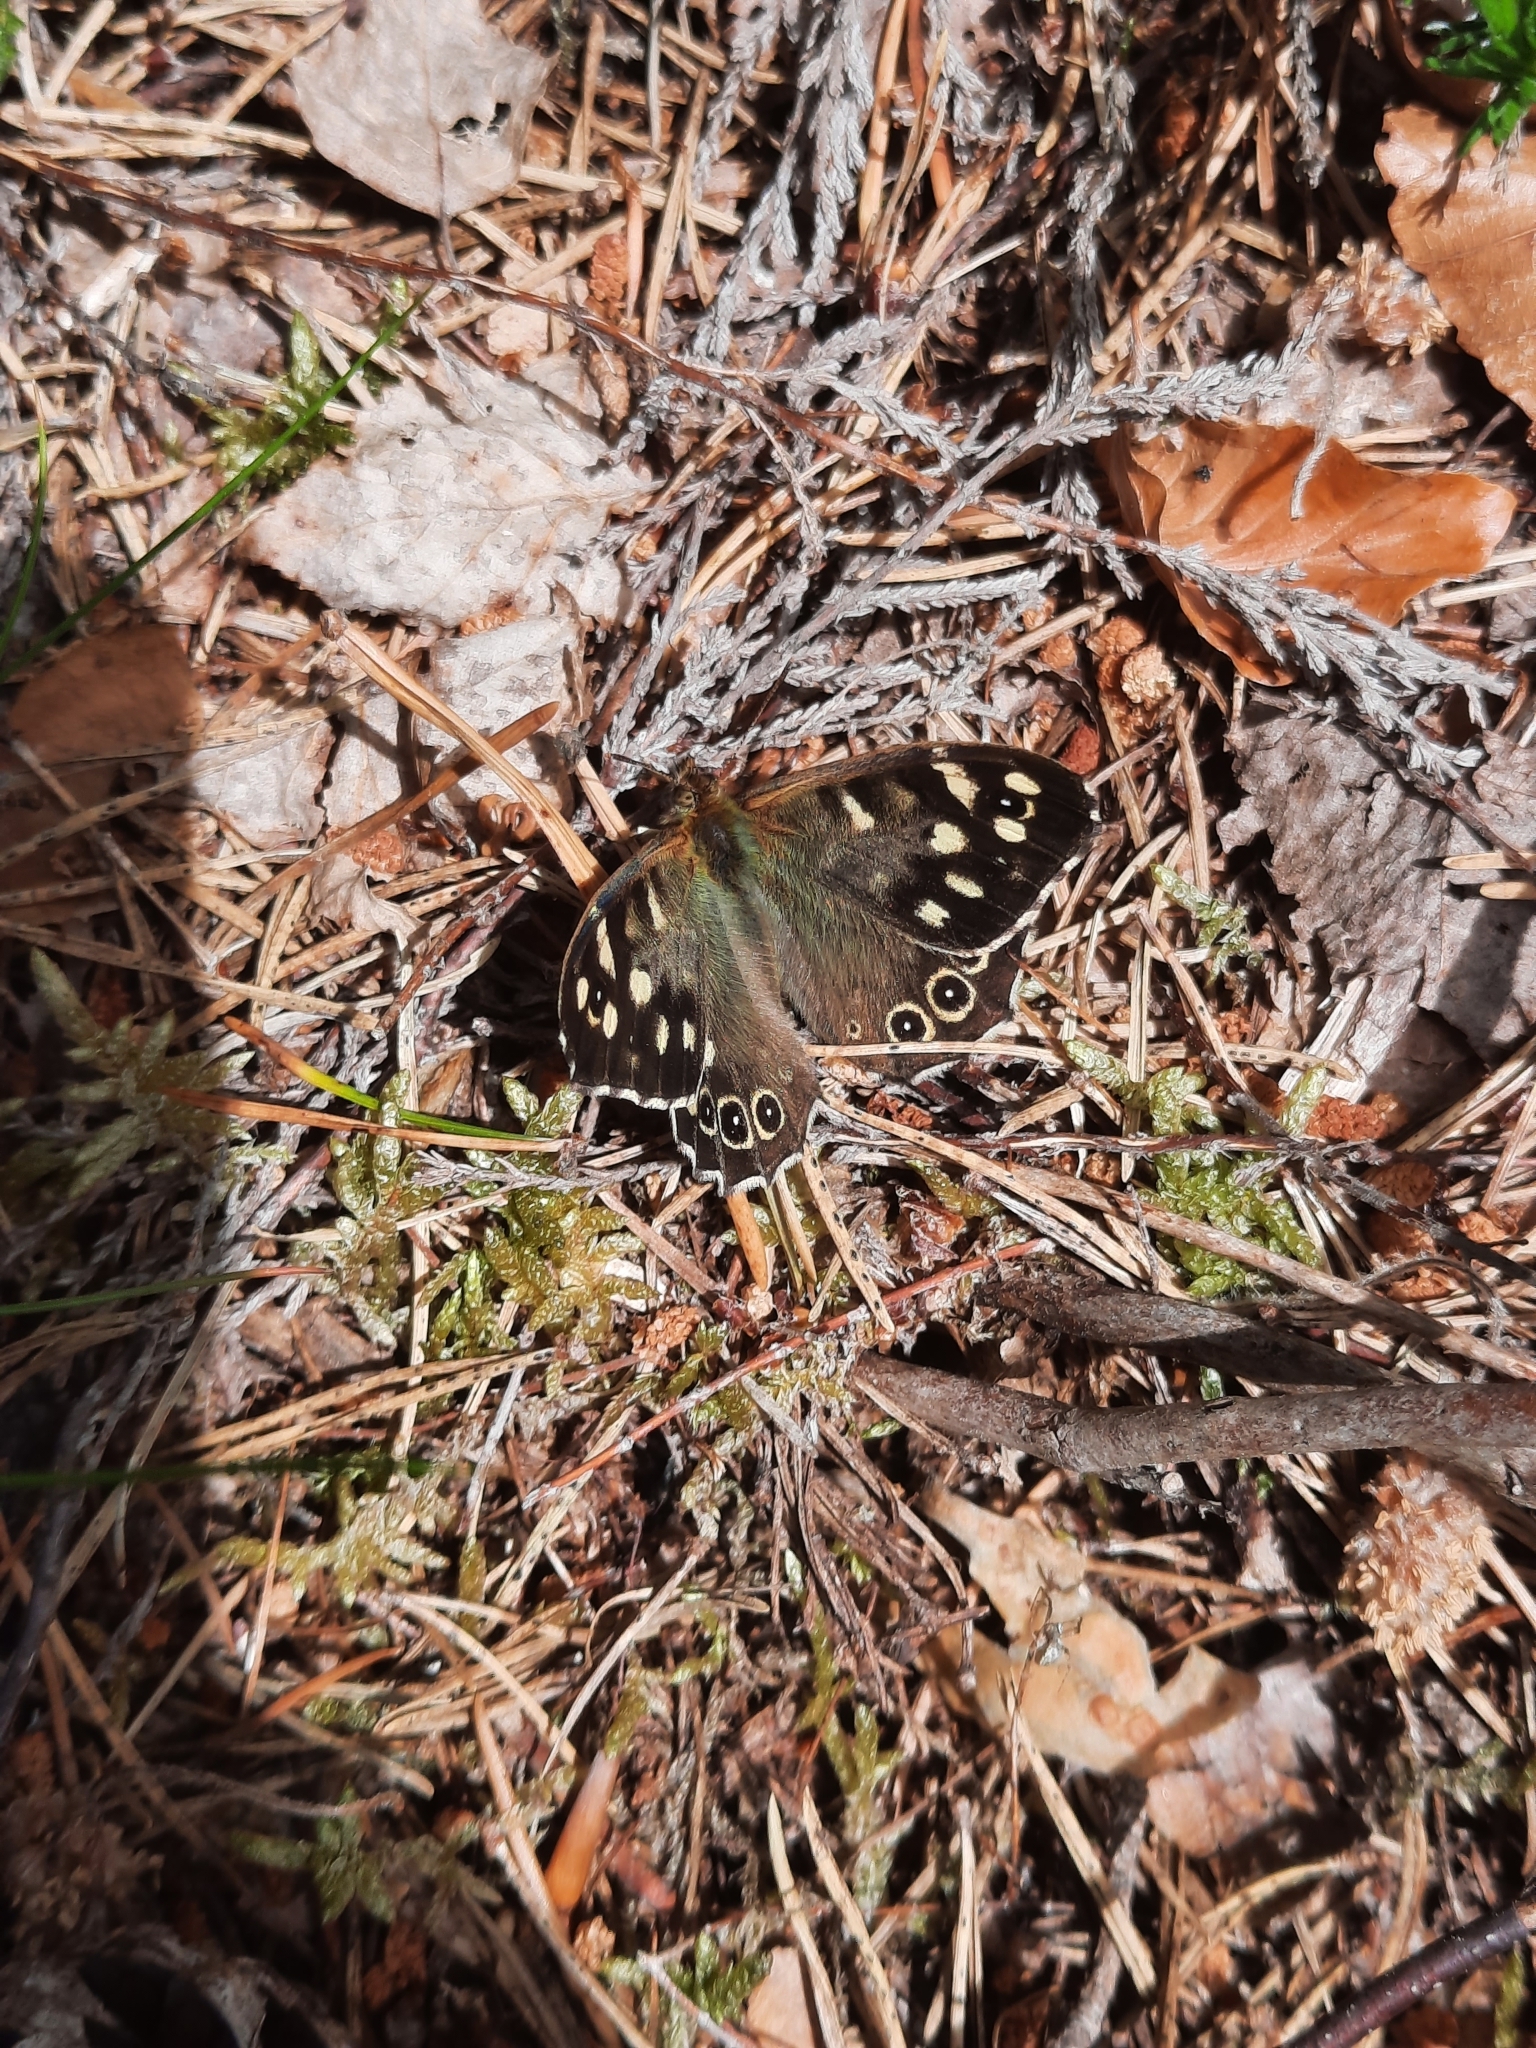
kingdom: Animalia
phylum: Arthropoda
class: Insecta
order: Lepidoptera
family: Nymphalidae
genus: Pararge
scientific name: Pararge aegeria
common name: Speckled wood
